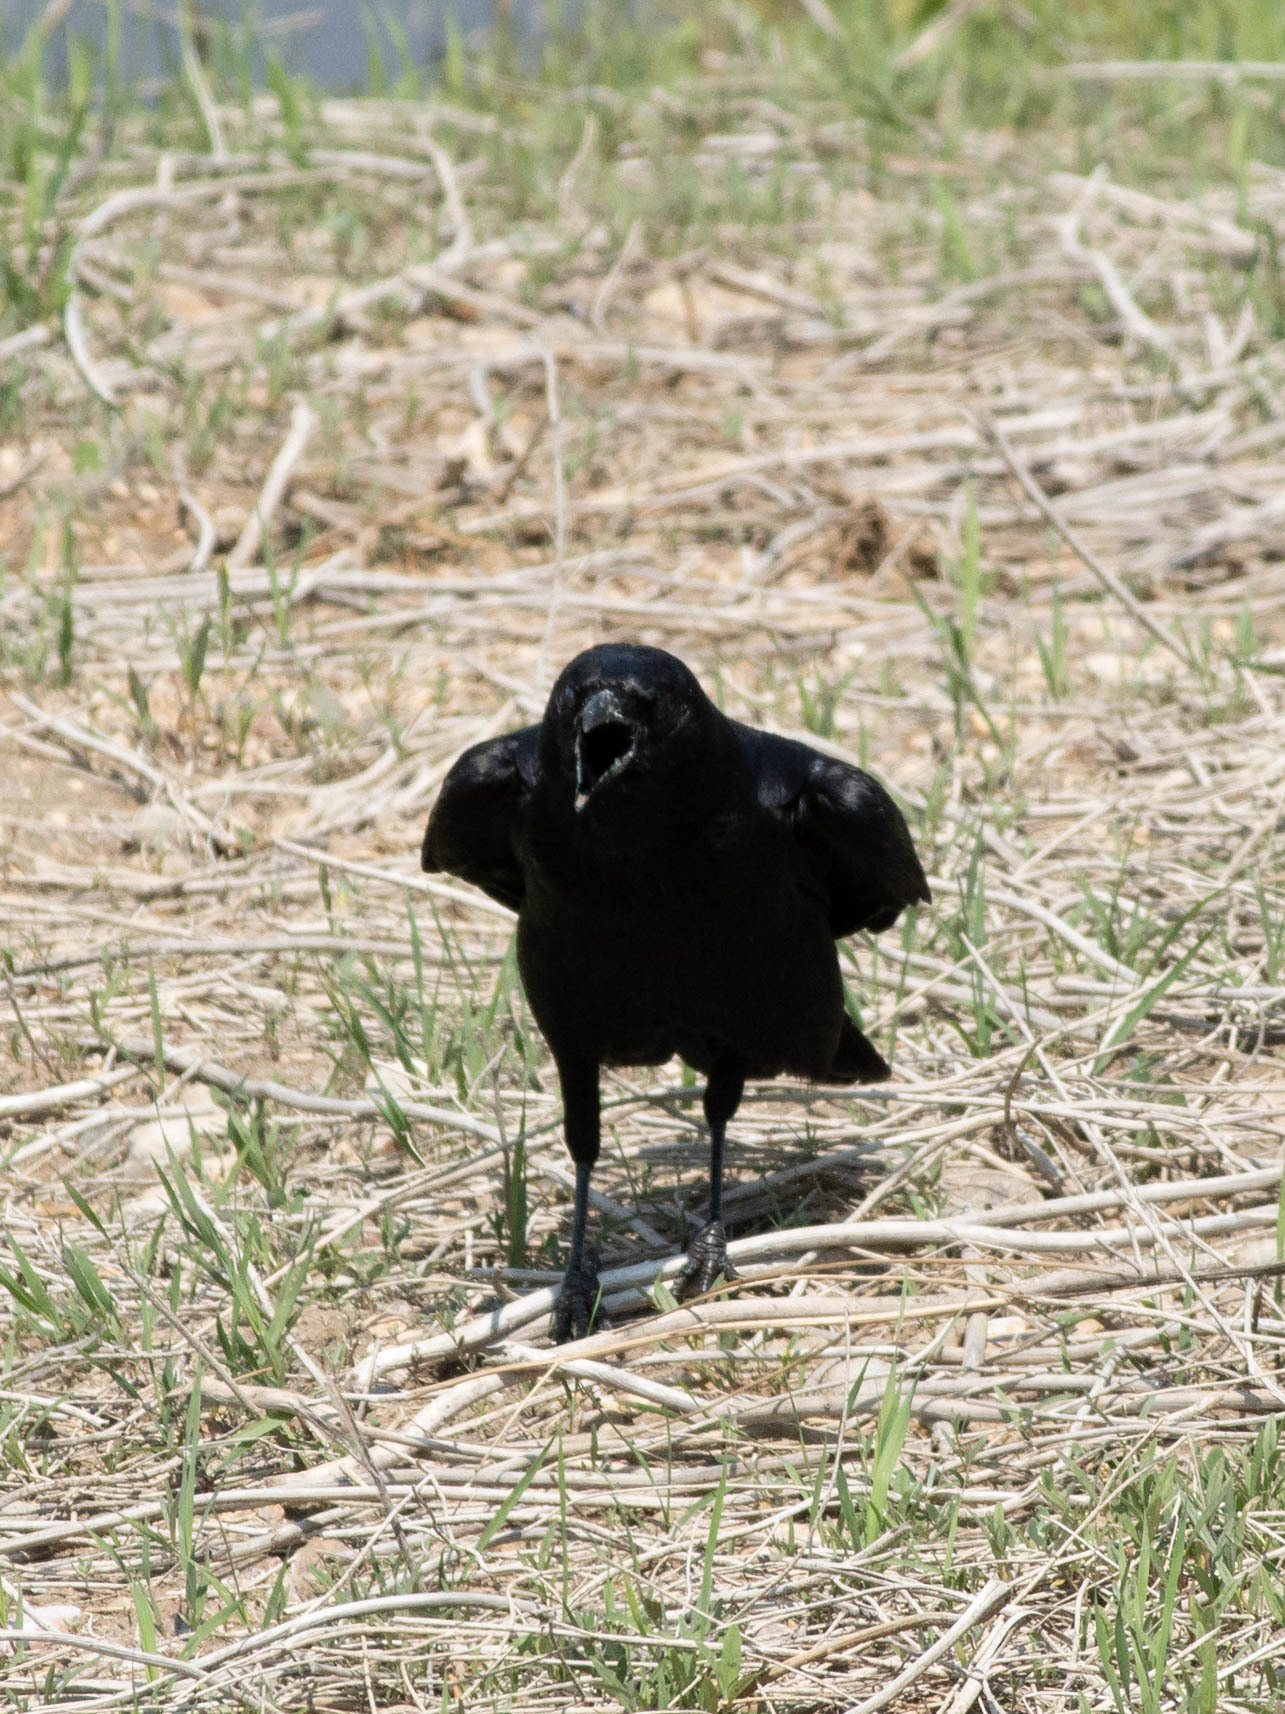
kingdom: Animalia
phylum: Chordata
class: Aves
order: Passeriformes
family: Corvidae
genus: Corvus
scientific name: Corvus brachyrhynchos
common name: American crow
